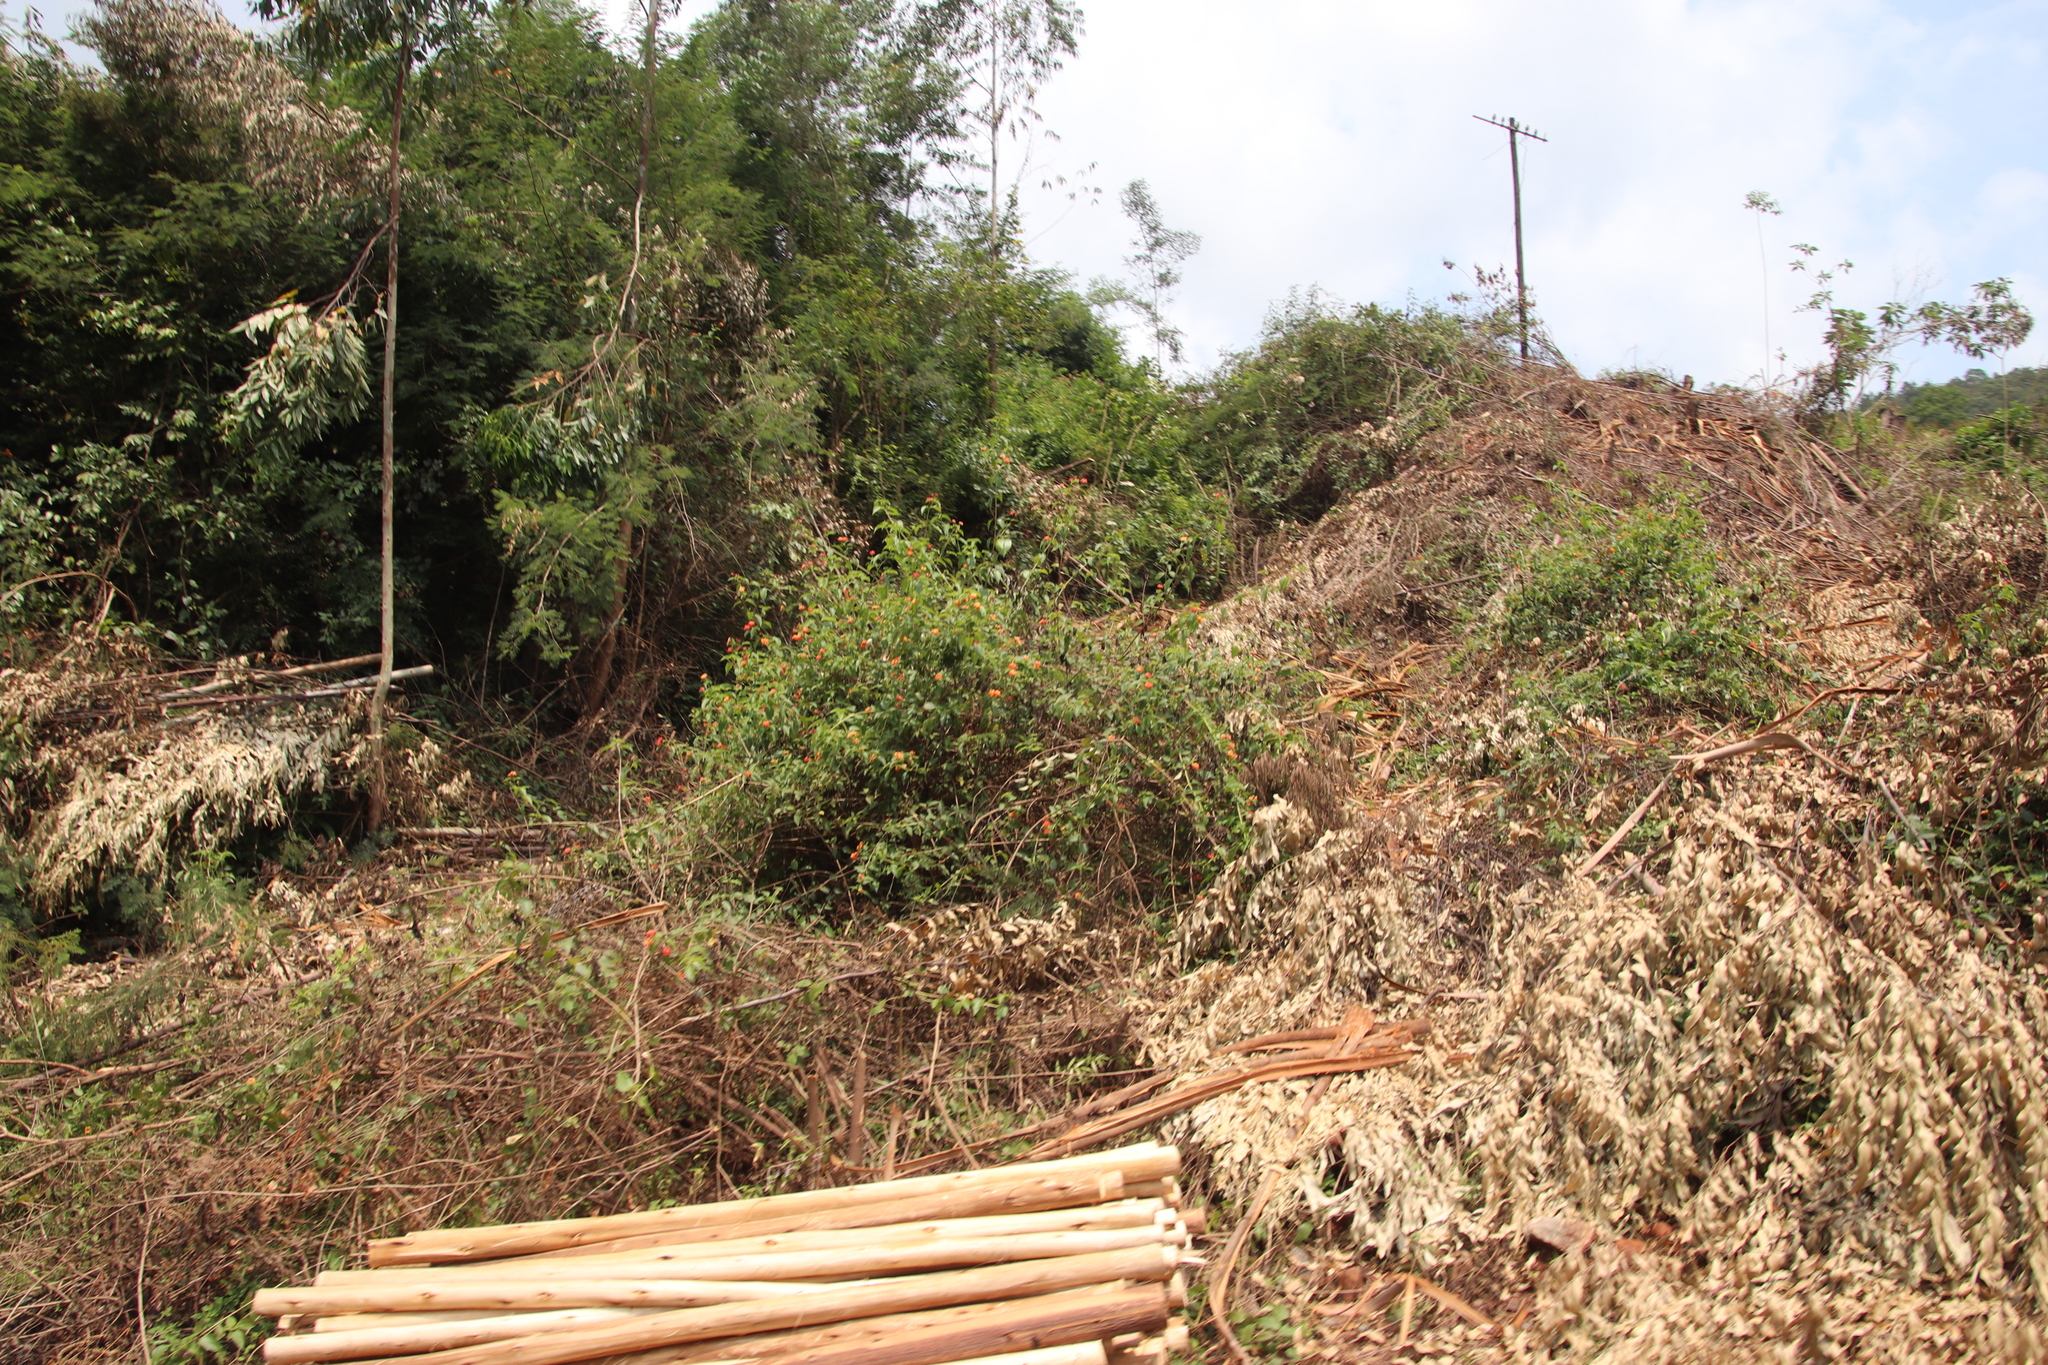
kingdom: Plantae
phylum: Tracheophyta
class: Magnoliopsida
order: Lamiales
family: Verbenaceae
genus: Lantana
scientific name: Lantana camara
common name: Lantana
